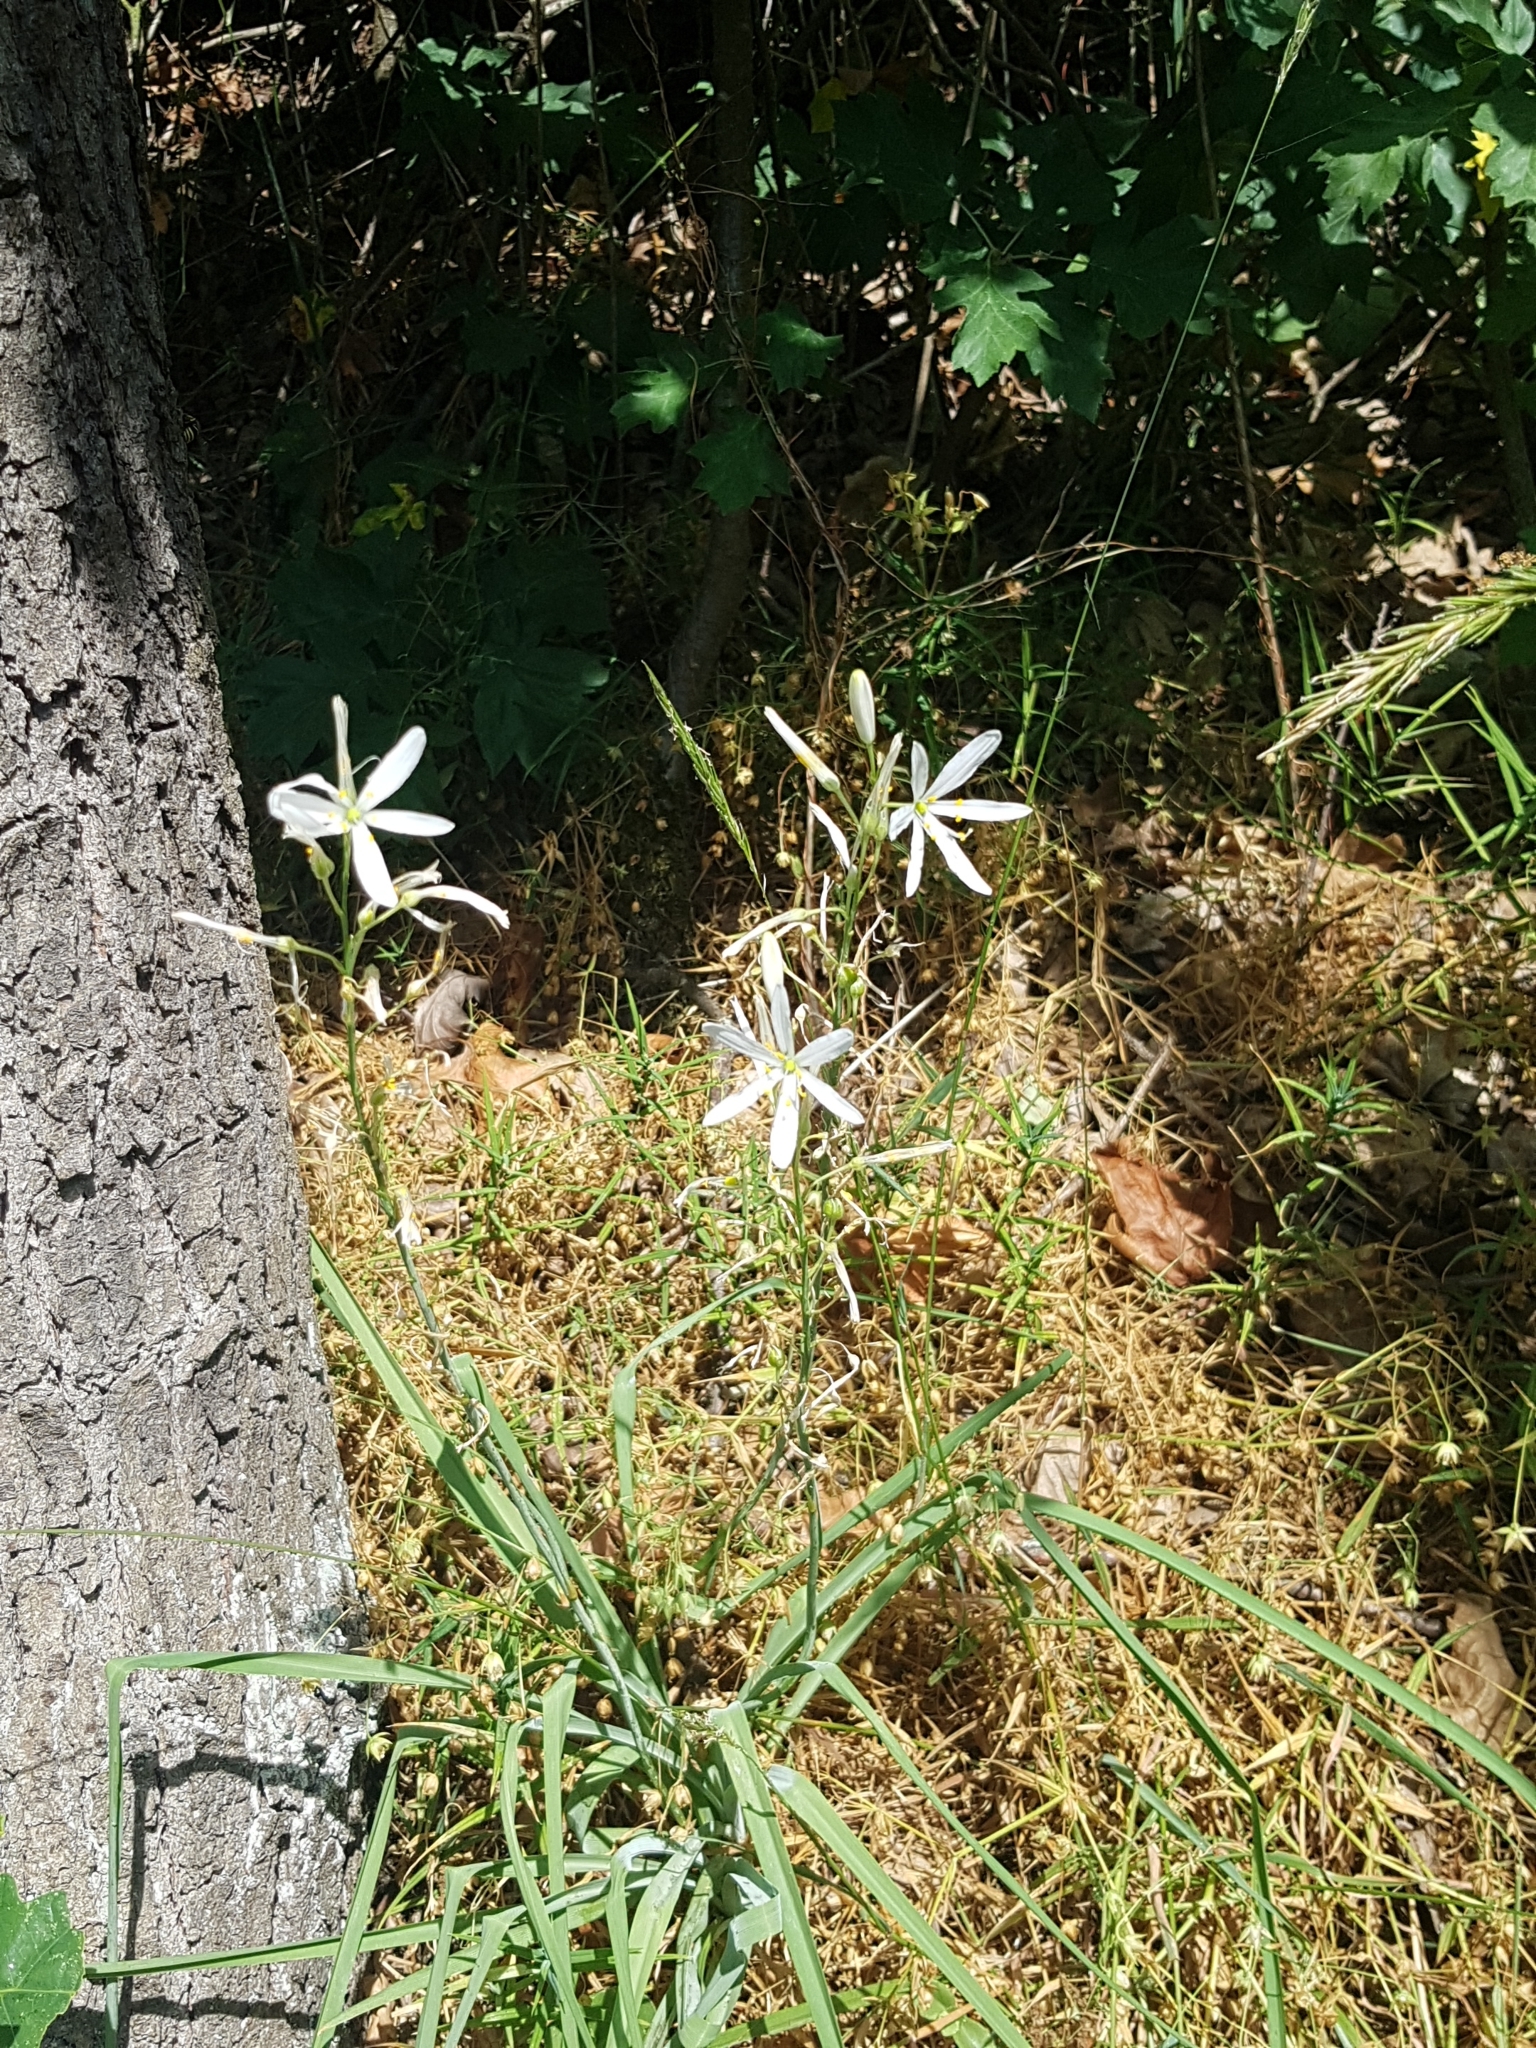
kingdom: Plantae
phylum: Tracheophyta
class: Liliopsida
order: Asparagales
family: Asparagaceae
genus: Anthericum
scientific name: Anthericum liliago
